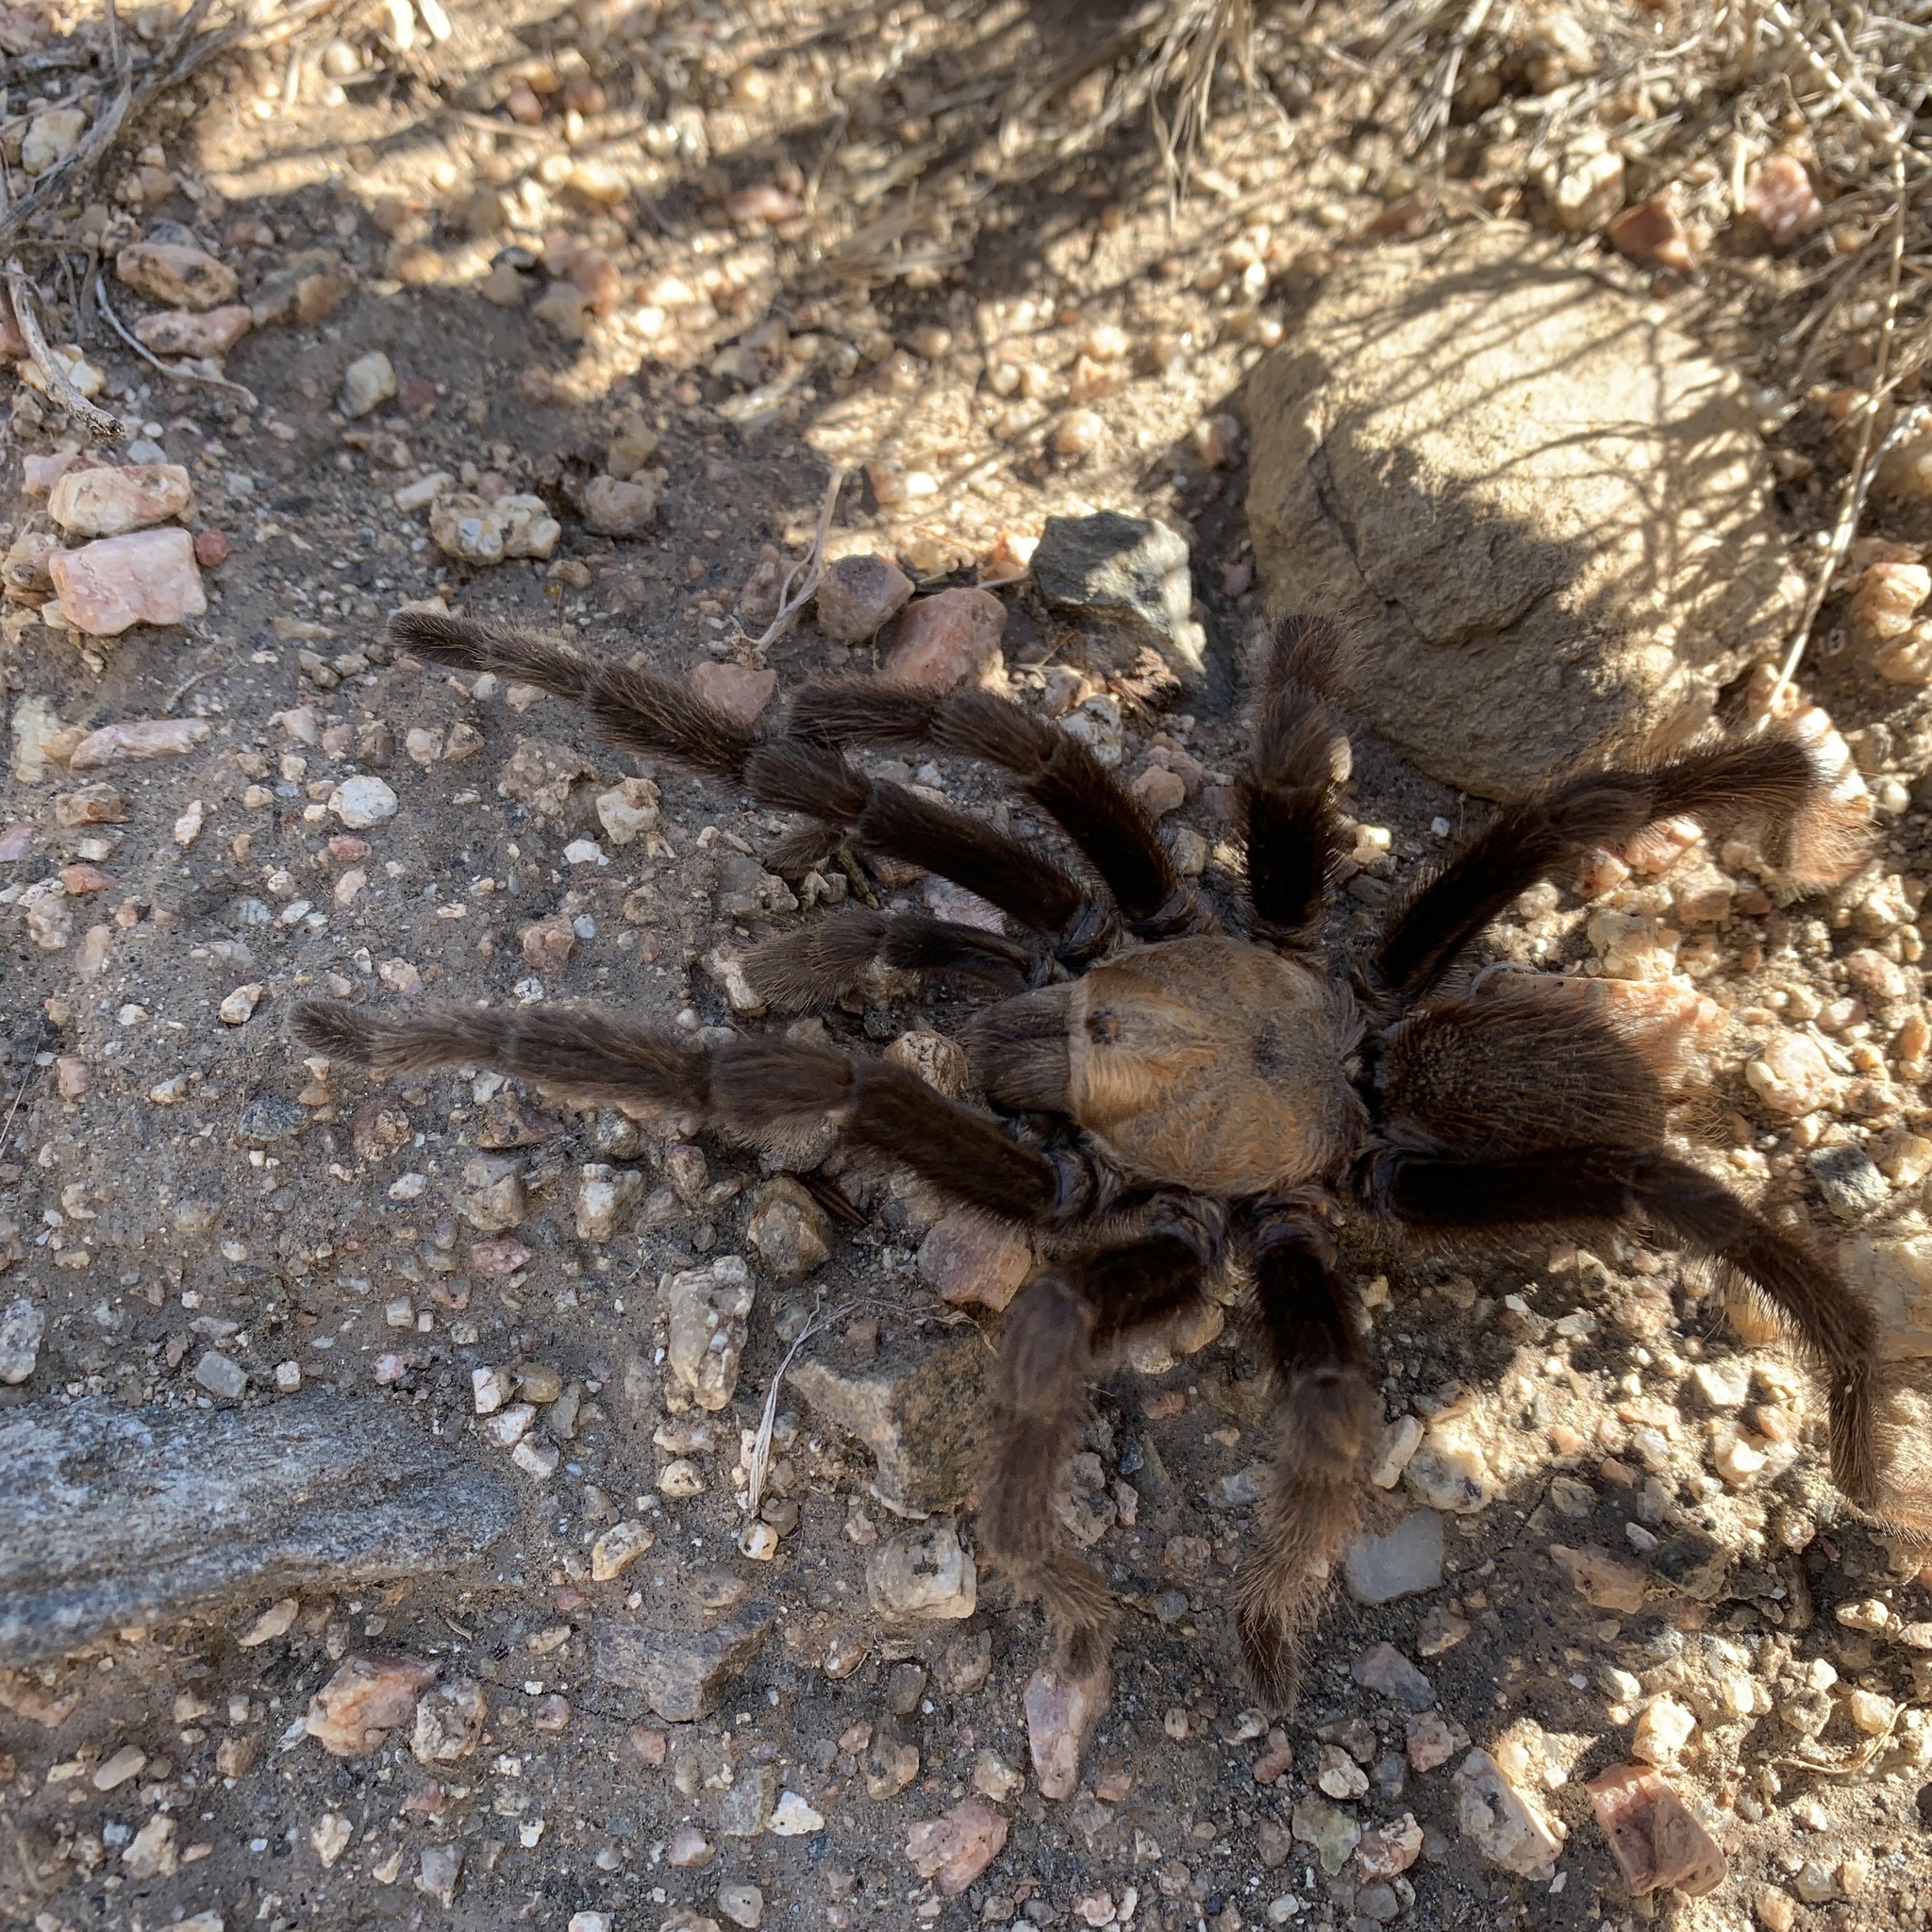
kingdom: Animalia
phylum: Arthropoda
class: Arachnida
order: Araneae
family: Theraphosidae
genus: Aphonopelma
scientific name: Aphonopelma hentzi
